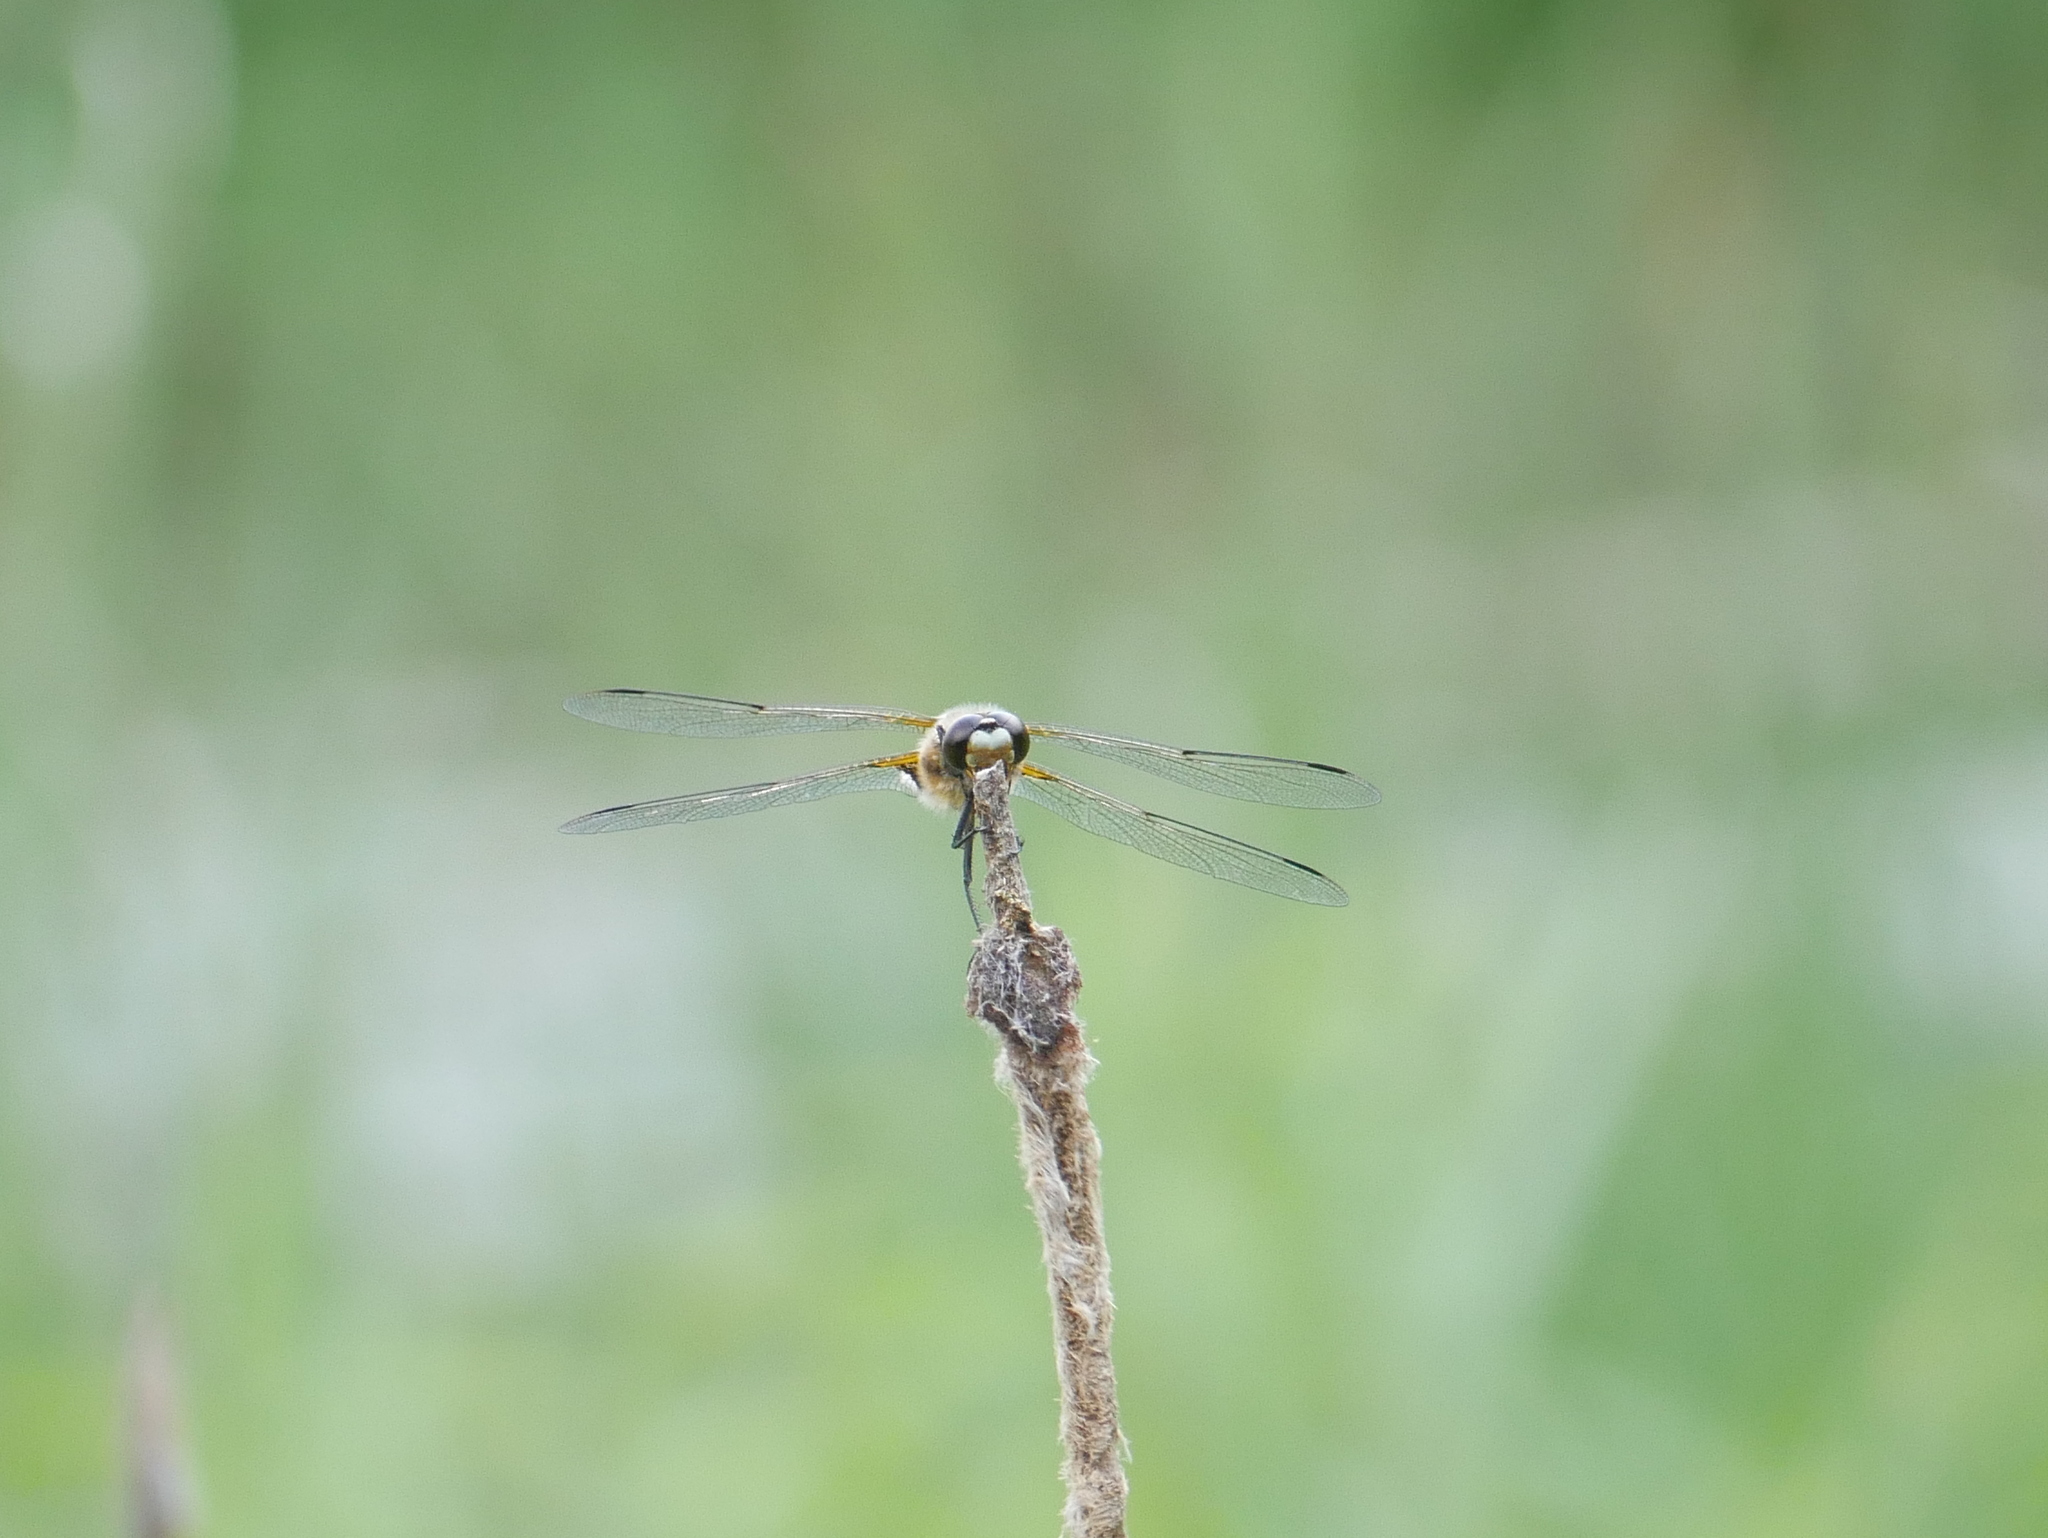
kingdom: Animalia
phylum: Arthropoda
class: Insecta
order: Odonata
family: Libellulidae
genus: Libellula
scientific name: Libellula quadrimaculata
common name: Four-spotted chaser
